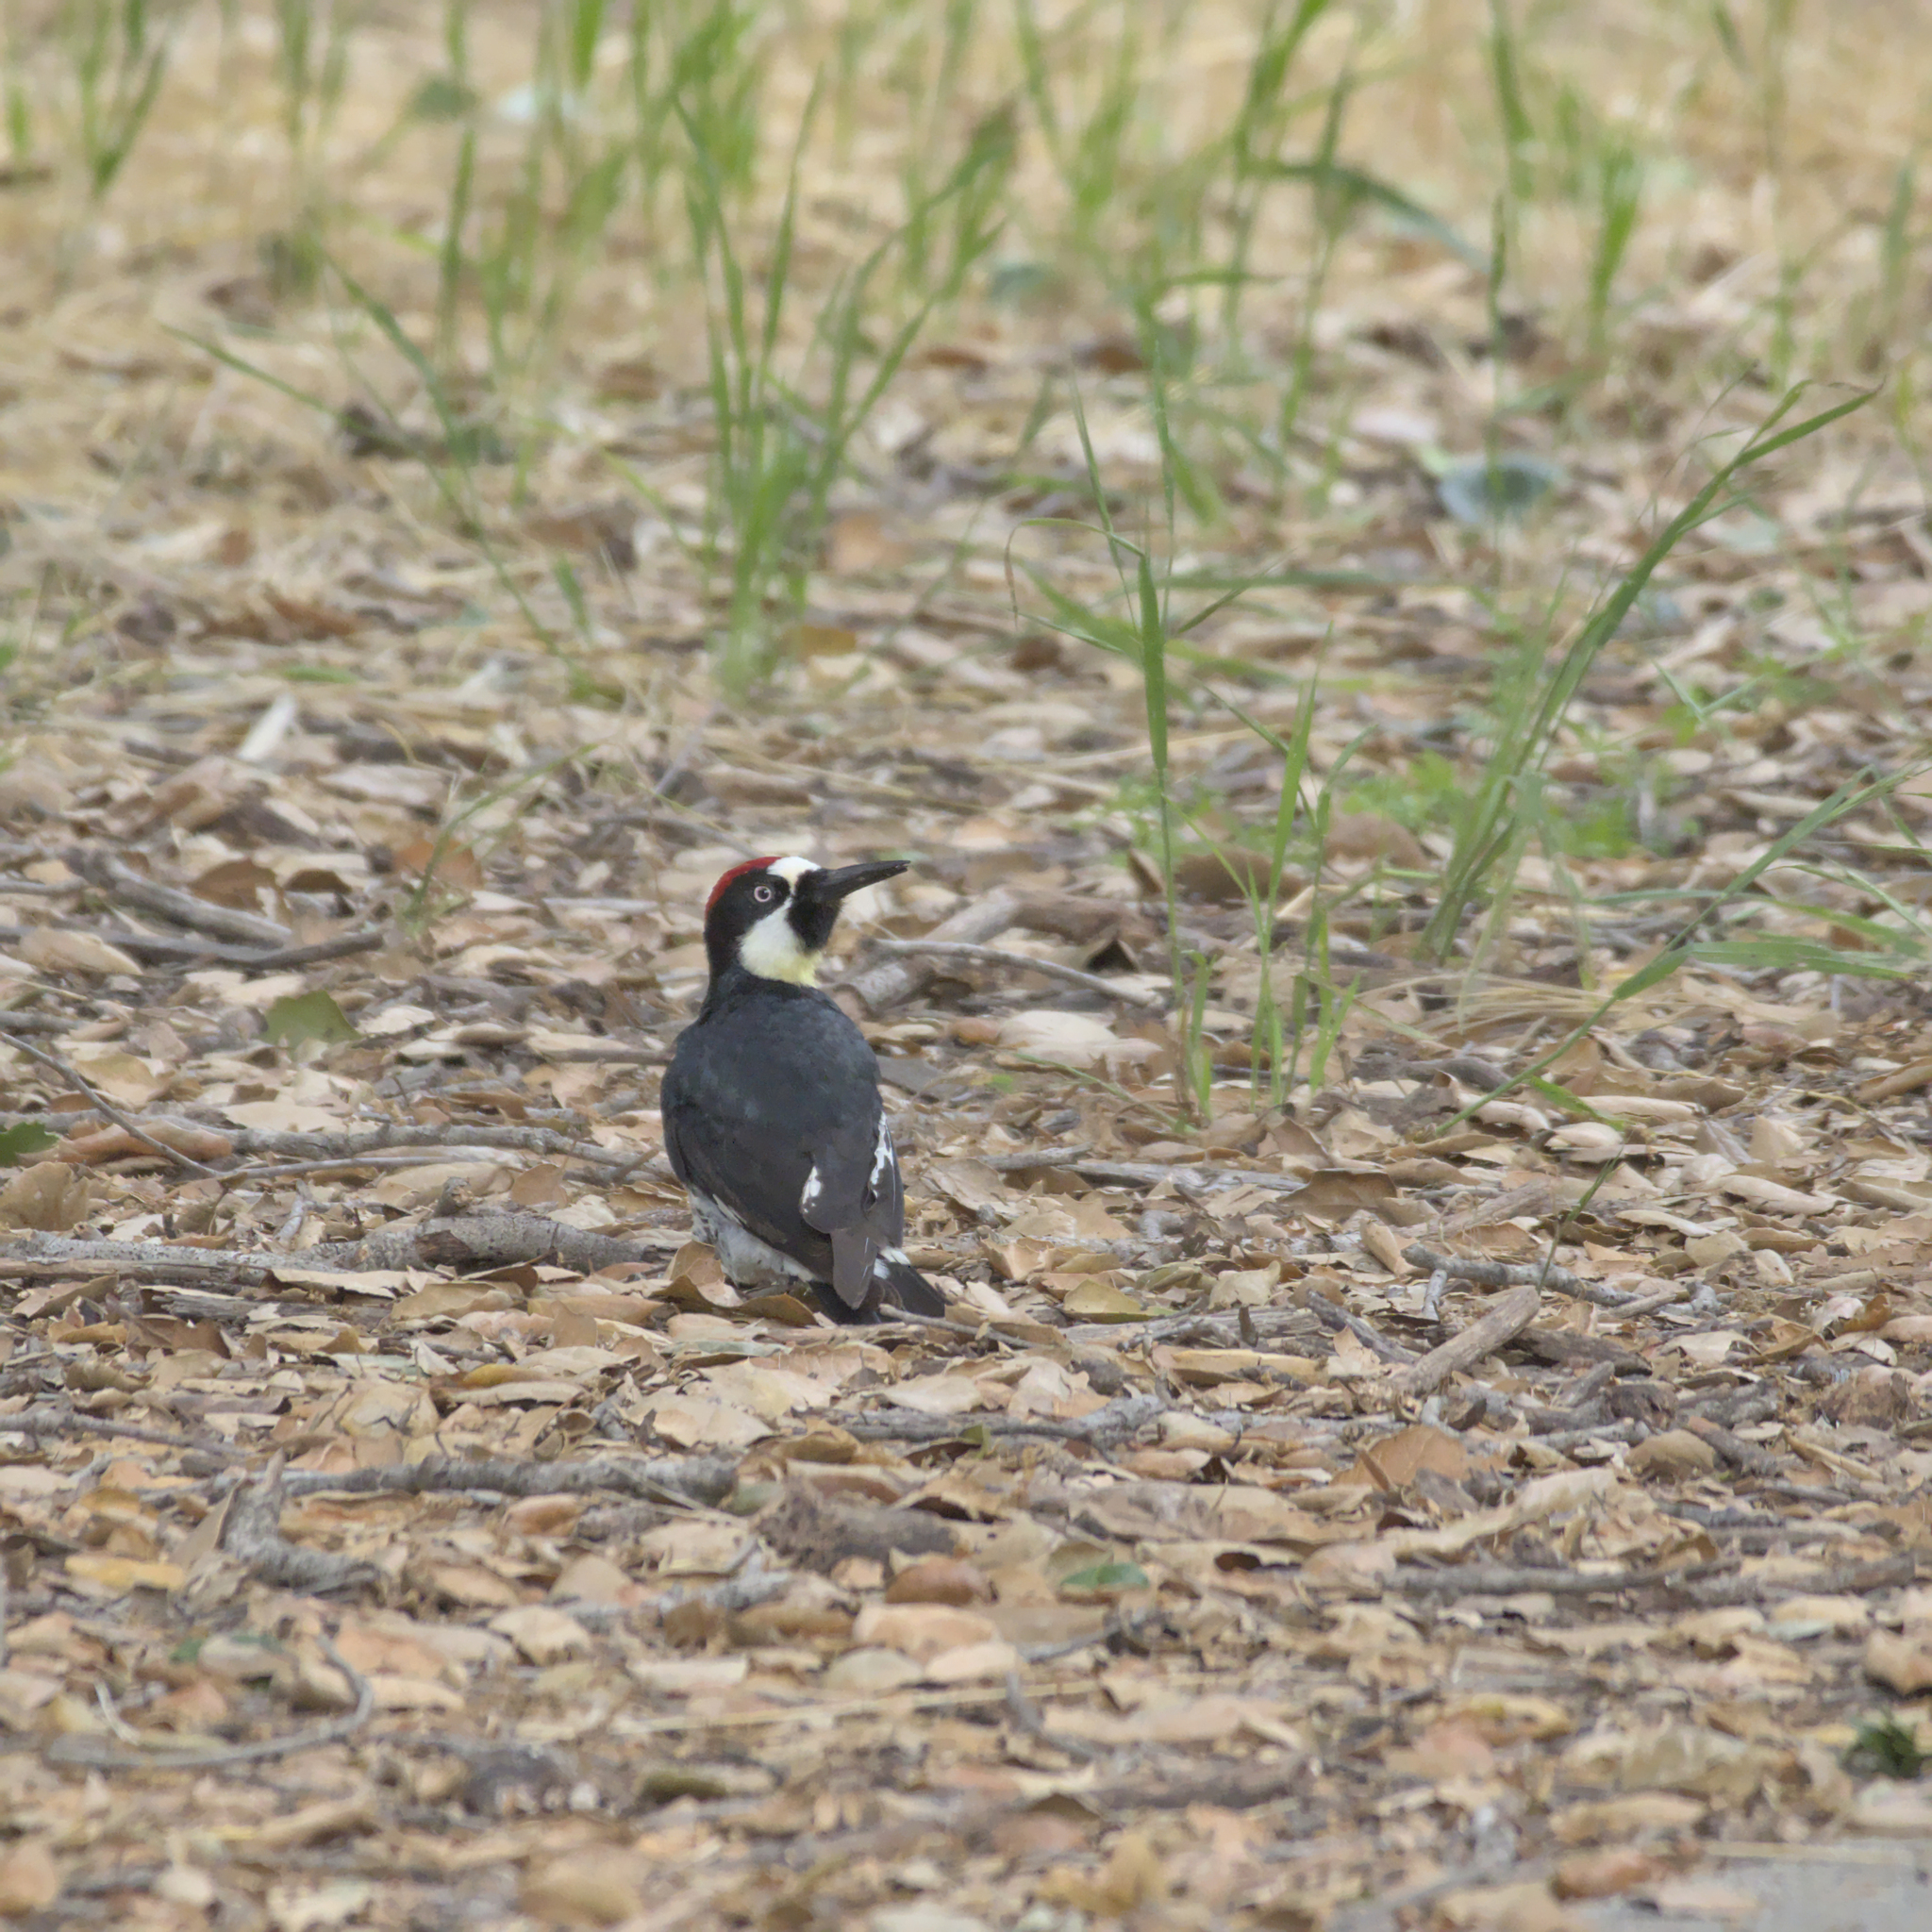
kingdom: Animalia
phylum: Chordata
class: Aves
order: Piciformes
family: Picidae
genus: Melanerpes
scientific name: Melanerpes formicivorus
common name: Acorn woodpecker
